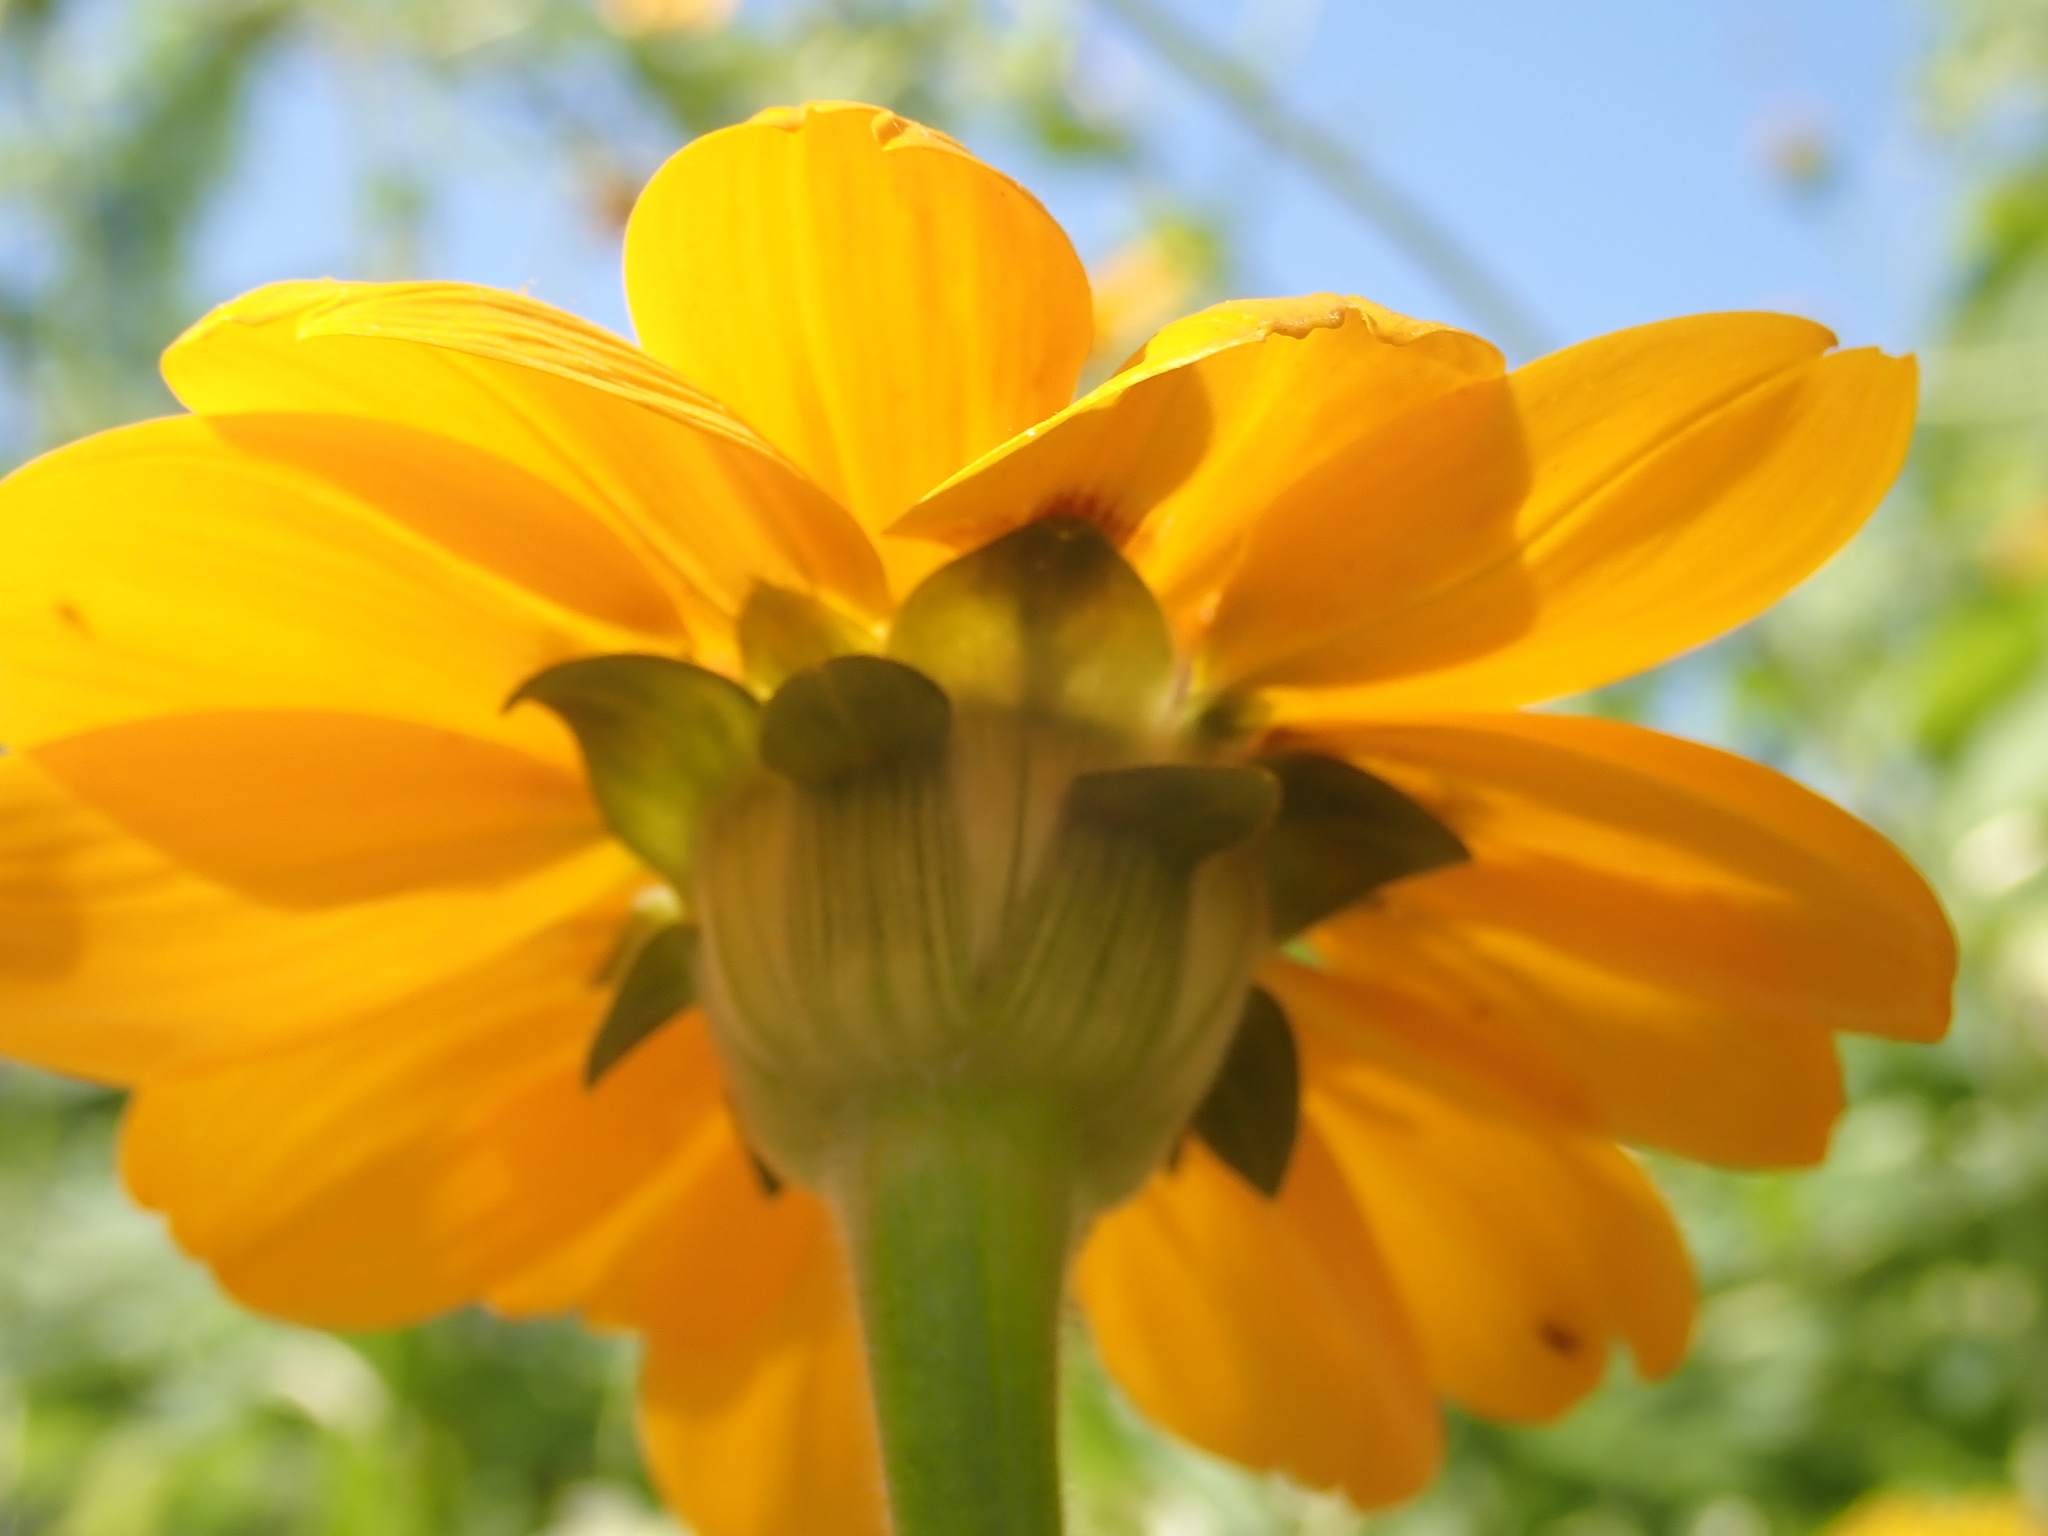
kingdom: Plantae
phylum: Tracheophyta
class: Magnoliopsida
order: Asterales
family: Asteraceae
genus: Tithonia
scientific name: Tithonia rotundifolia
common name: Sunflower
